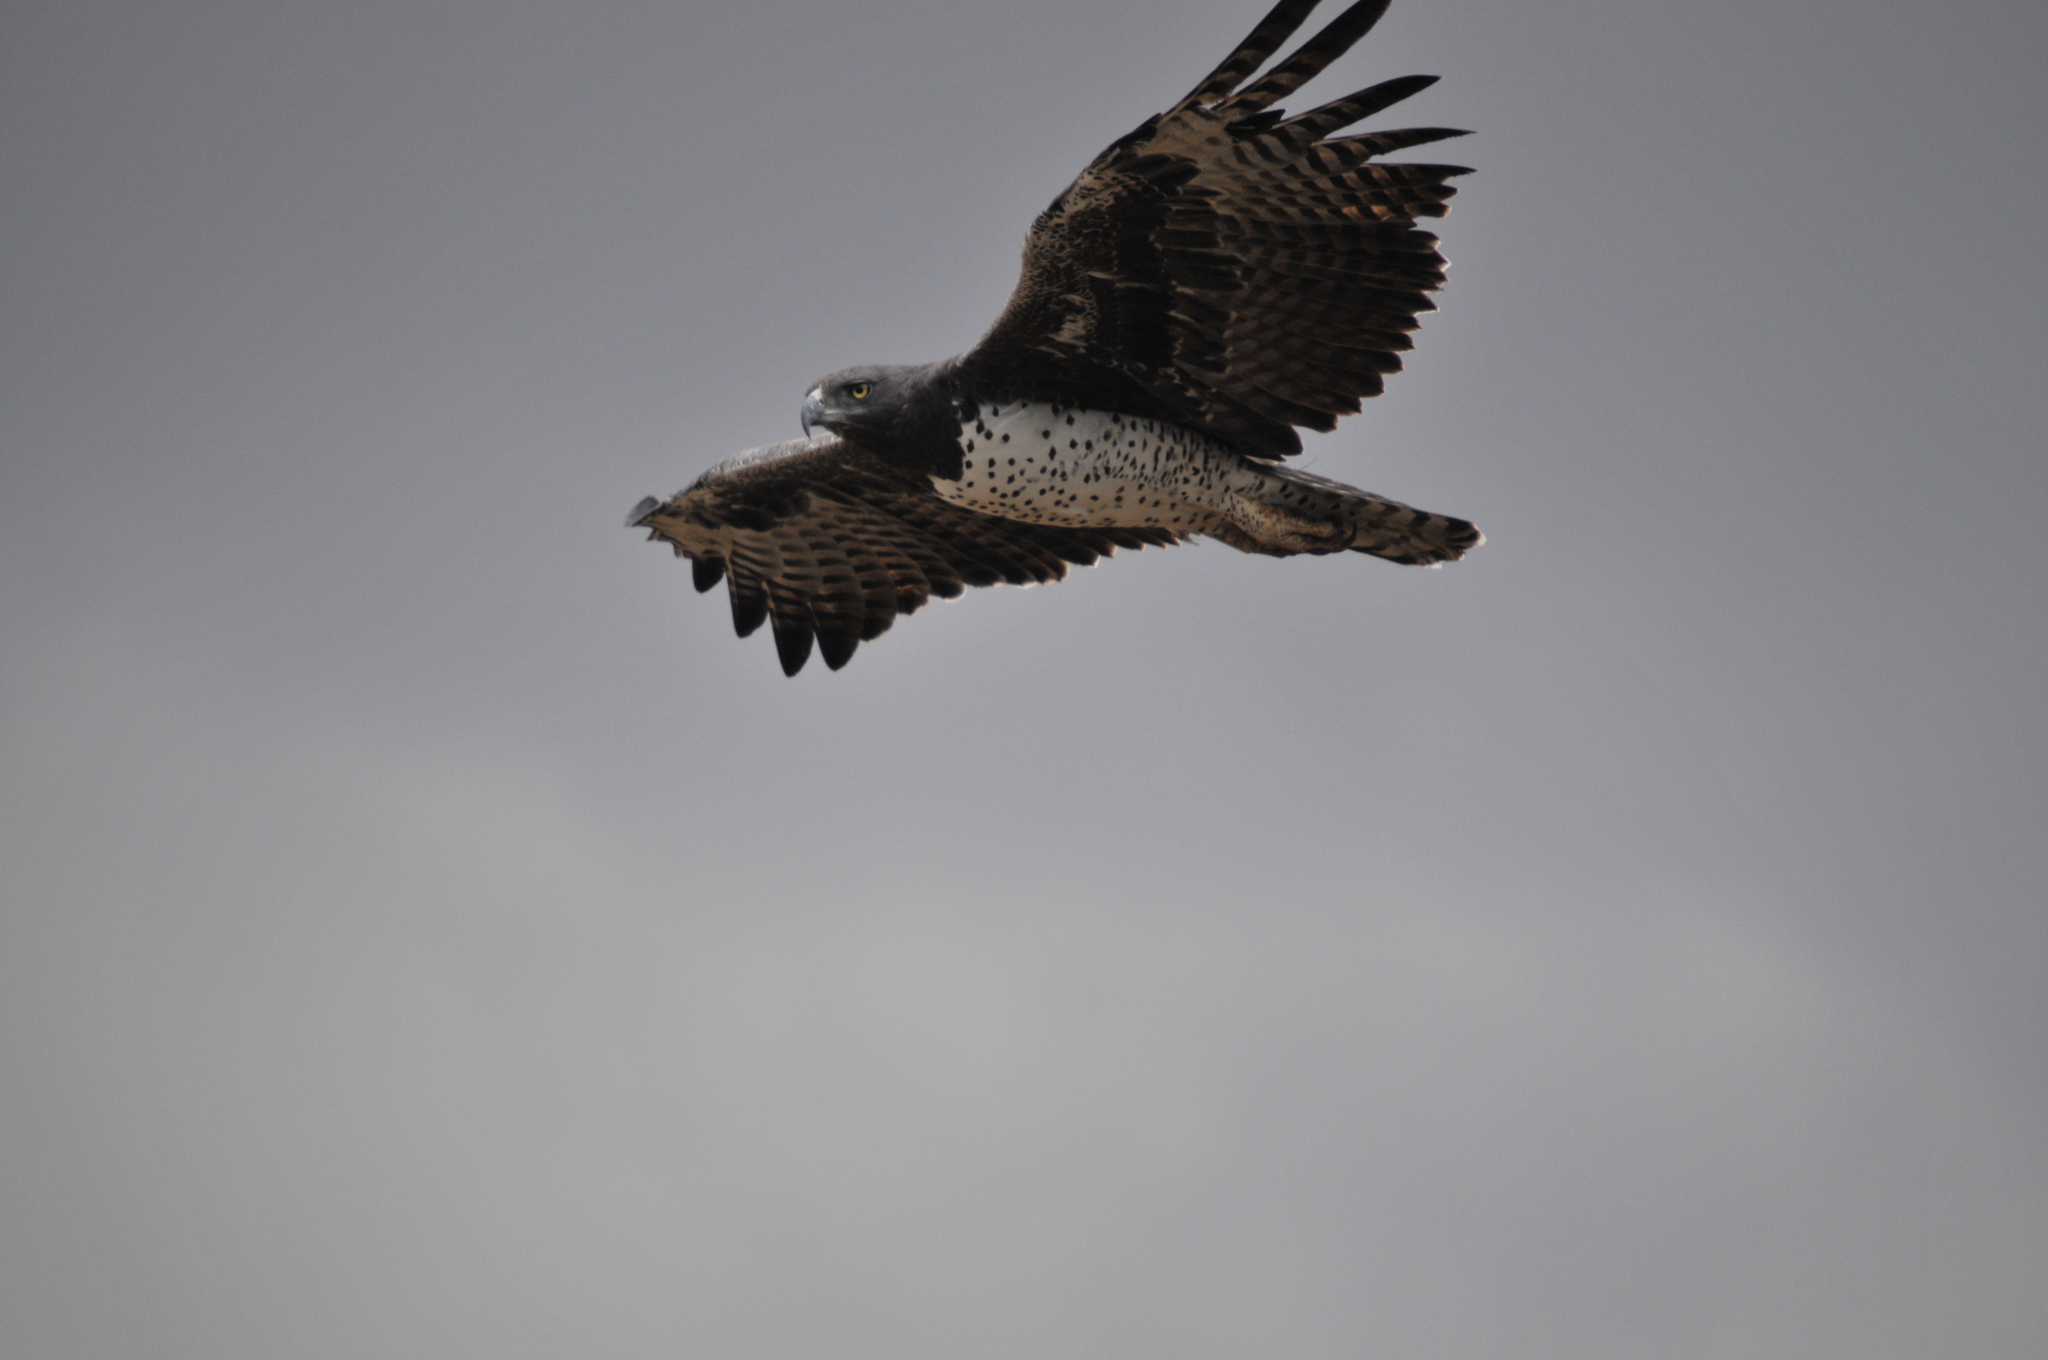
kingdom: Animalia
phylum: Chordata
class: Aves
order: Accipitriformes
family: Accipitridae
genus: Polemaetus
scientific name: Polemaetus bellicosus
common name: Martial eagle
